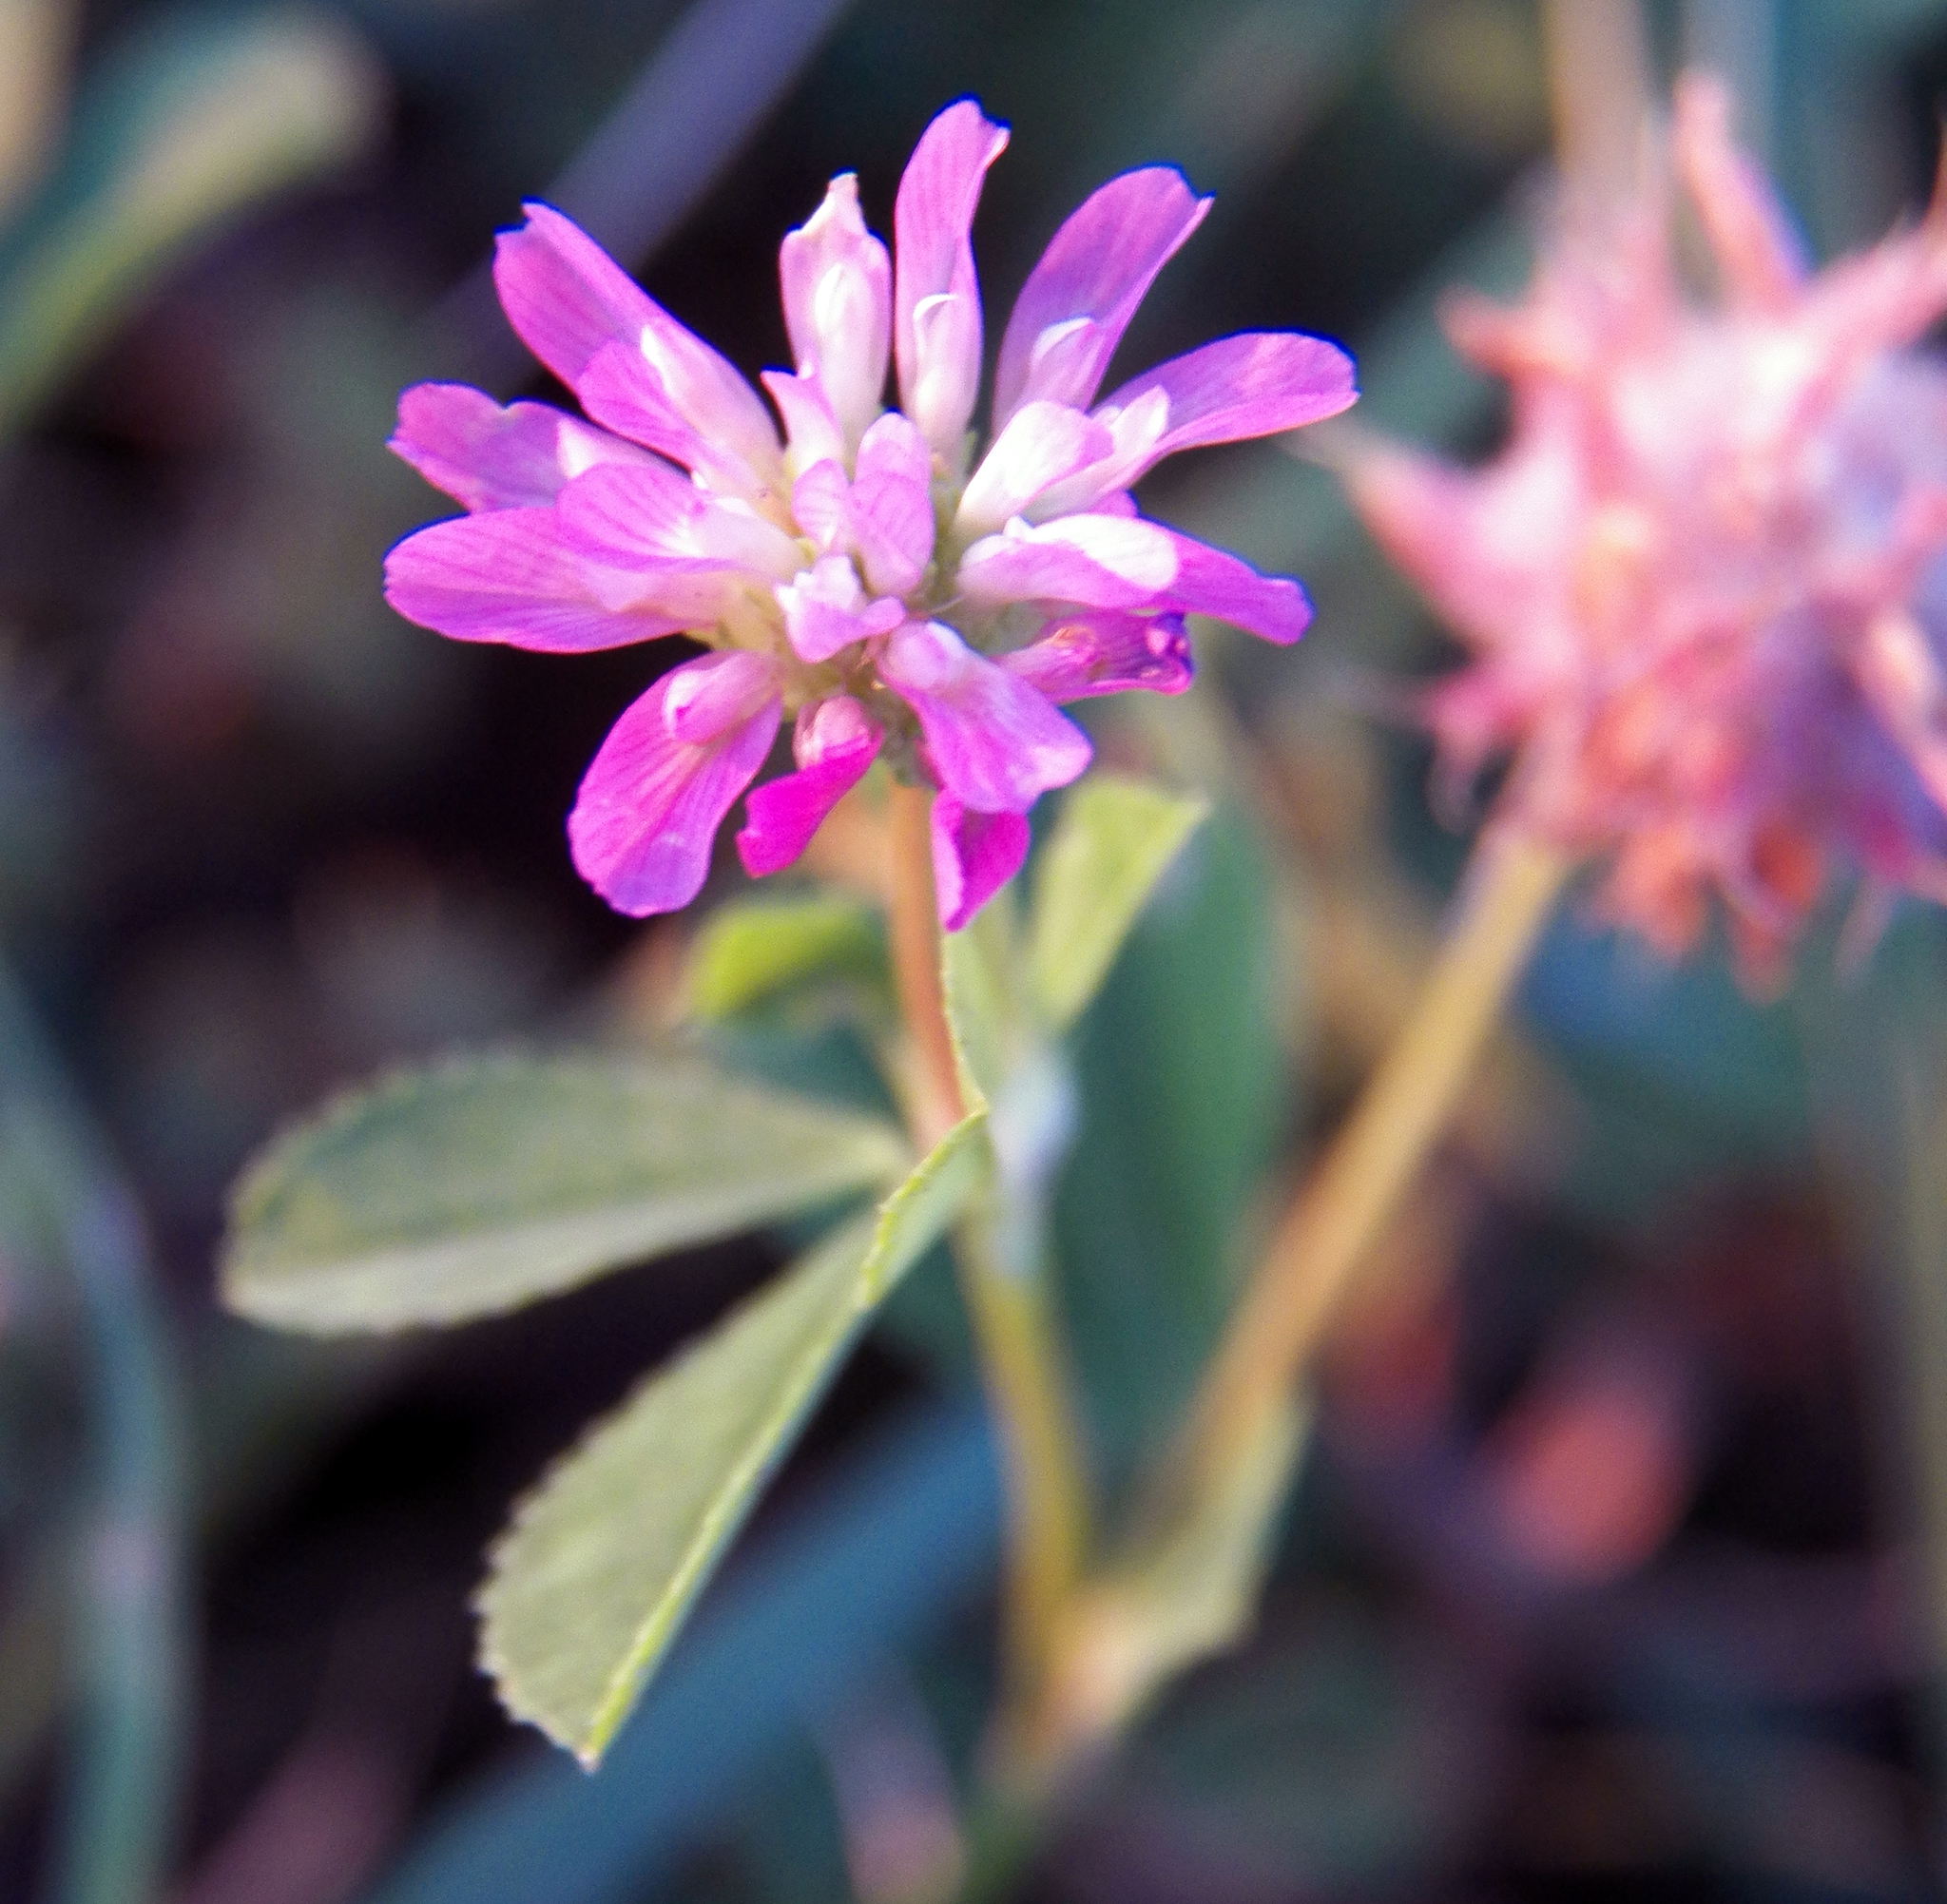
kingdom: Plantae
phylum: Tracheophyta
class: Magnoliopsida
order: Fabales
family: Fabaceae
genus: Trifolium
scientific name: Trifolium resupinatum
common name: Reversed clover
